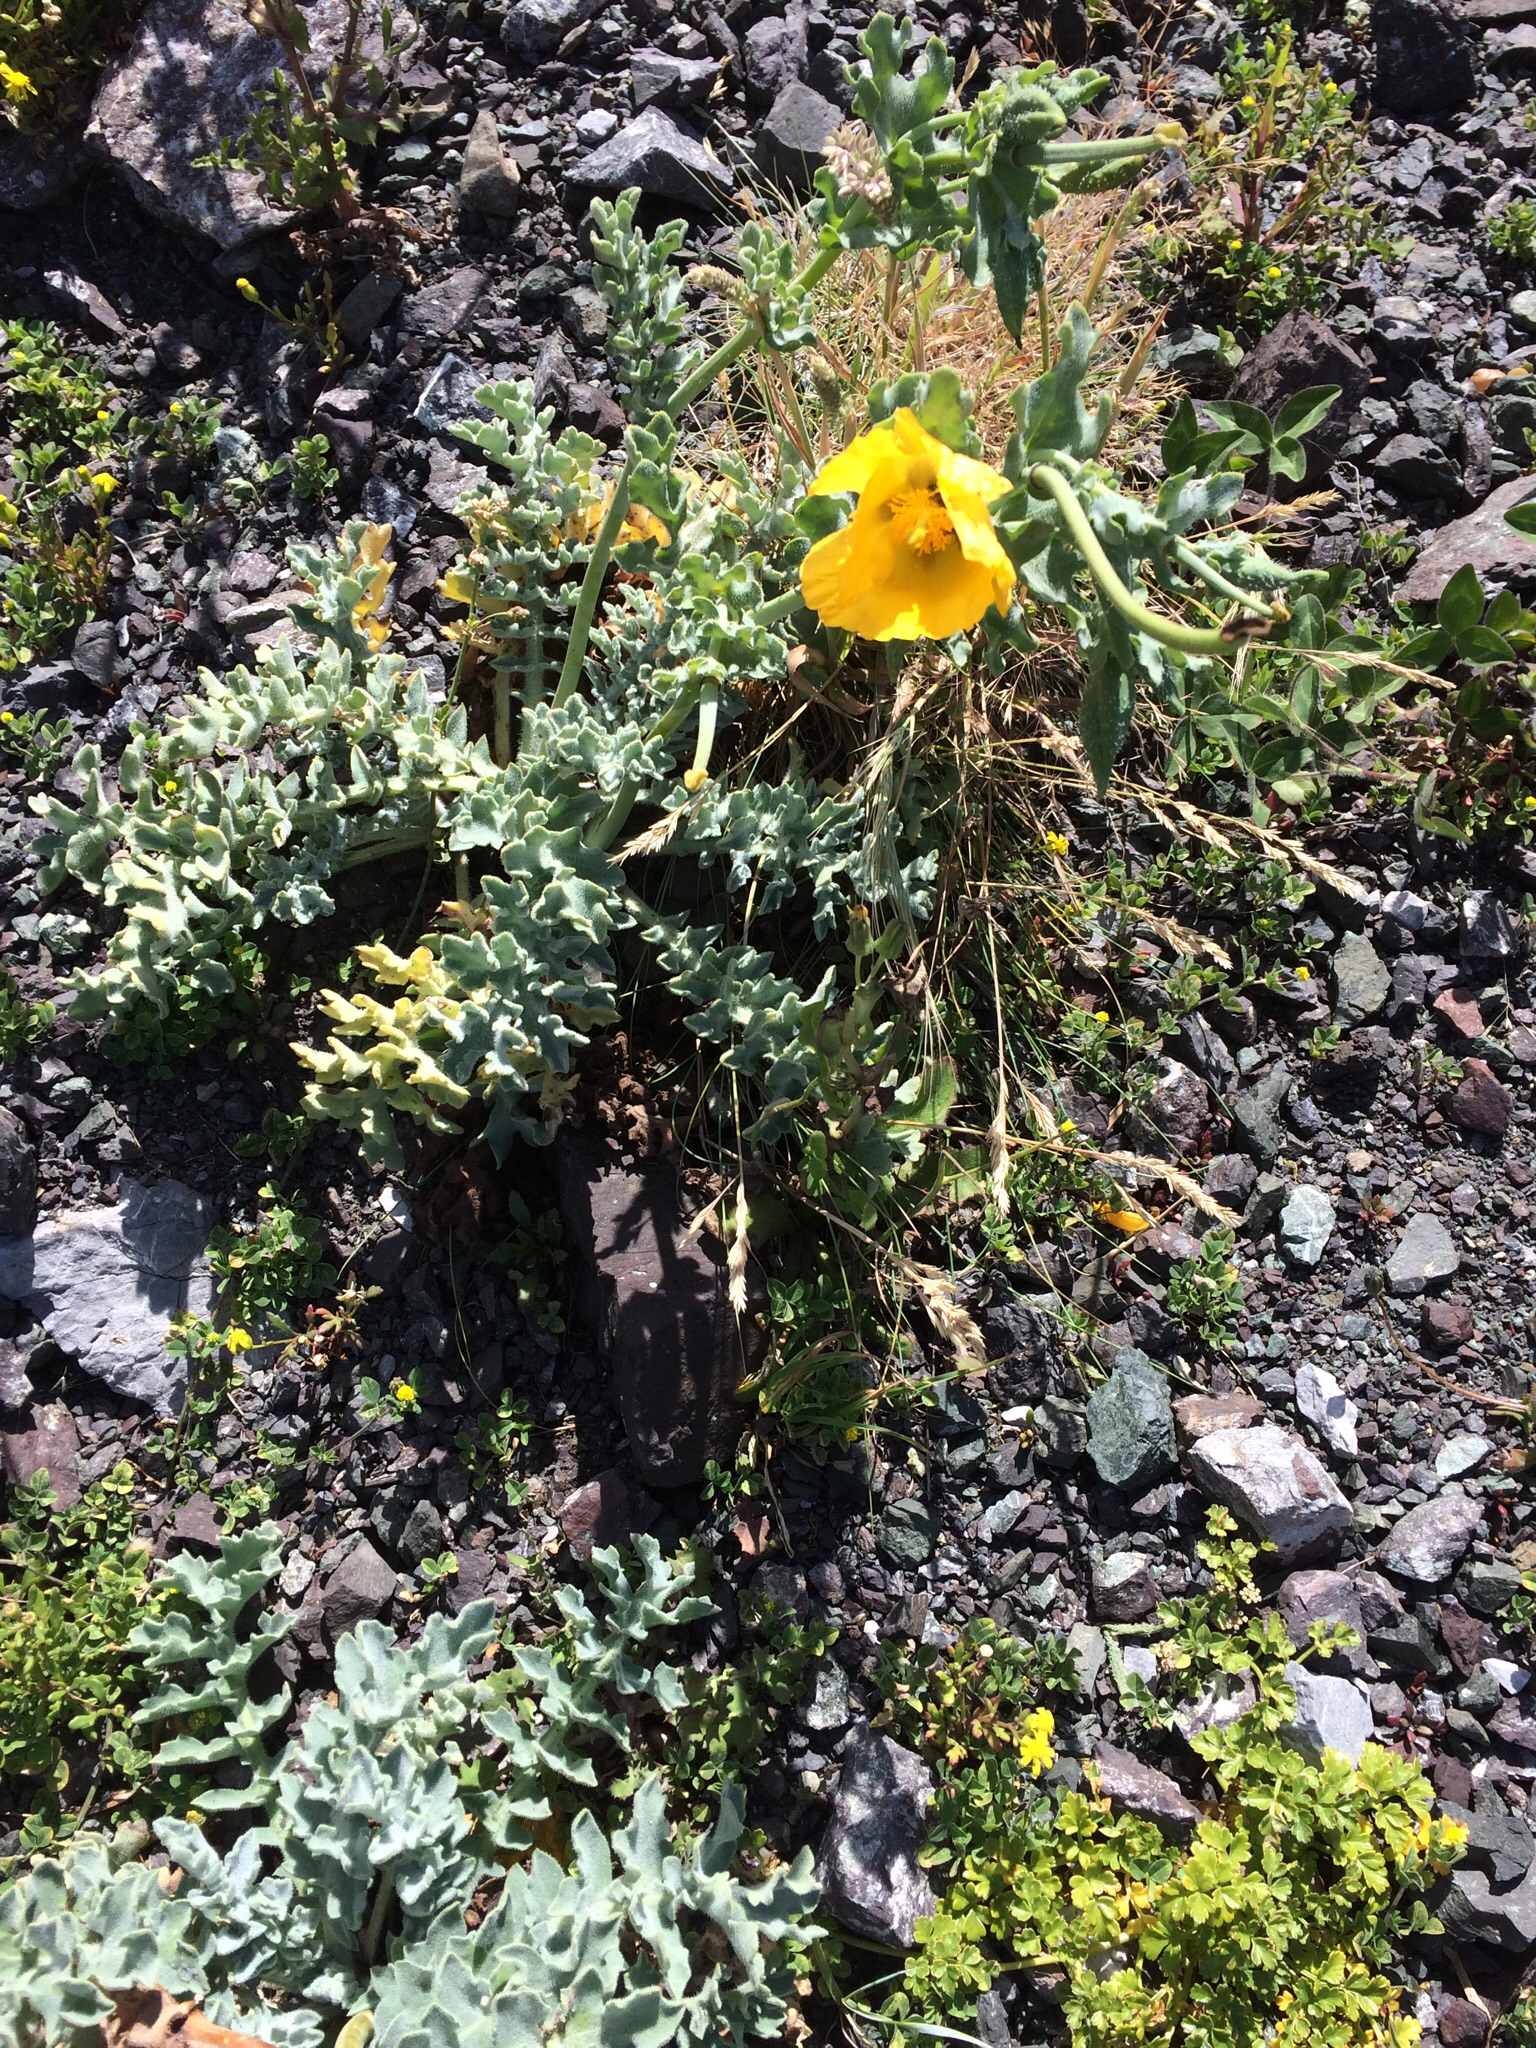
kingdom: Plantae
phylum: Tracheophyta
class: Magnoliopsida
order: Ranunculales
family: Papaveraceae
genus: Glaucium
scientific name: Glaucium flavum
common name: Yellow horned-poppy
